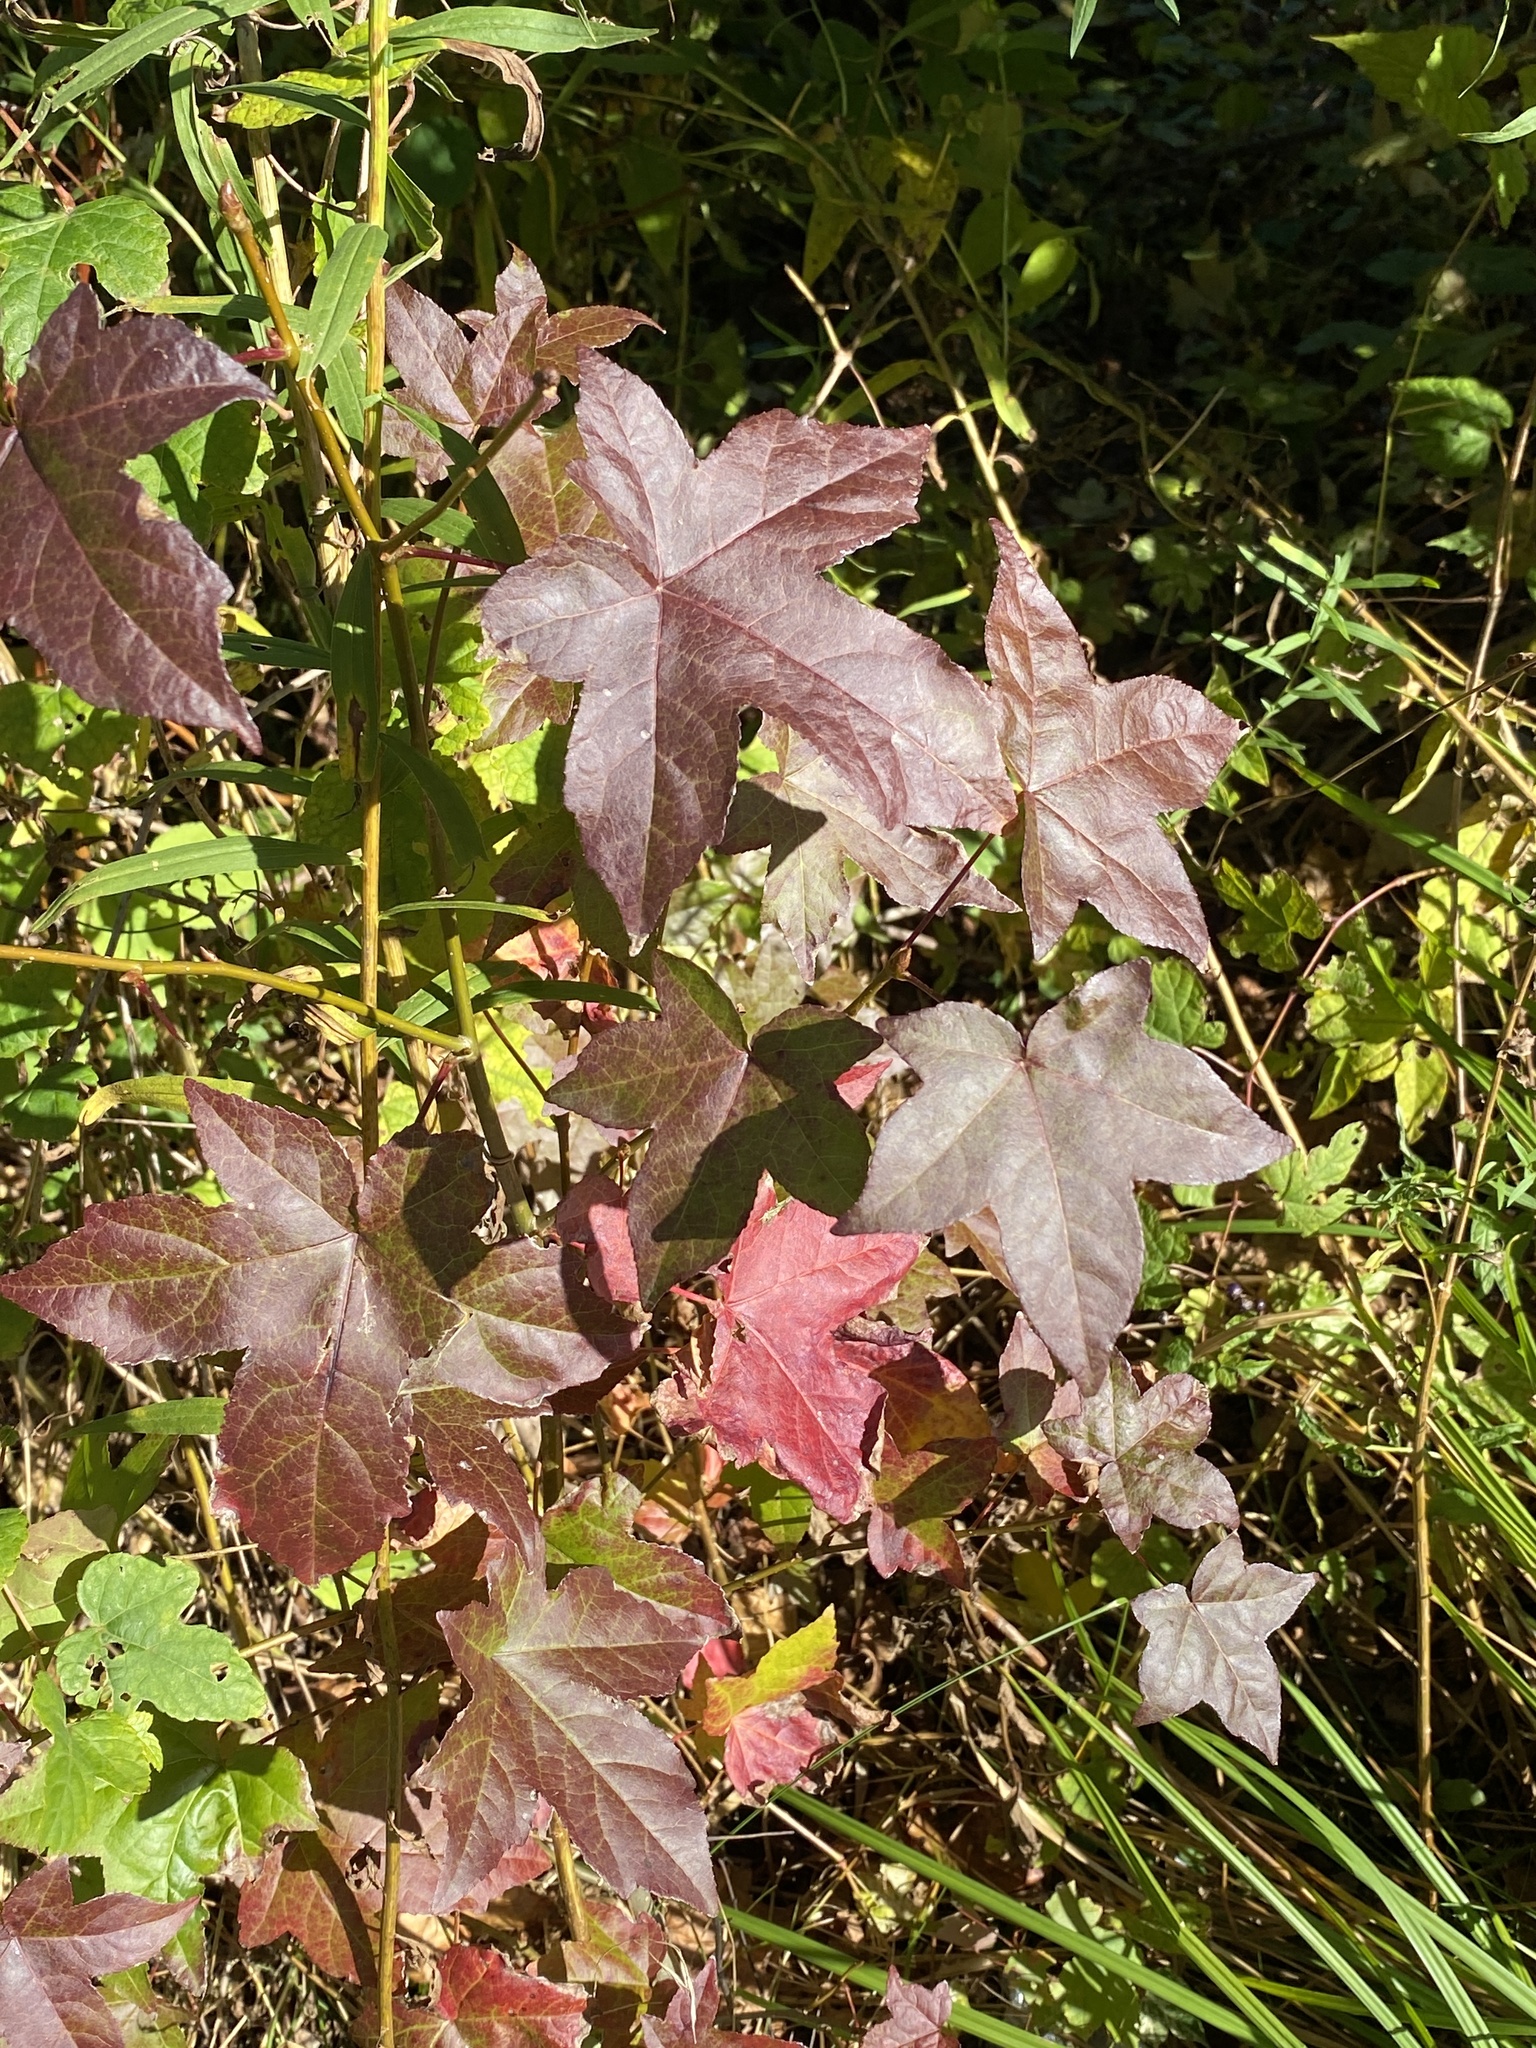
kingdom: Plantae
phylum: Tracheophyta
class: Magnoliopsida
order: Saxifragales
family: Altingiaceae
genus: Liquidambar
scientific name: Liquidambar styraciflua
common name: Sweet gum
